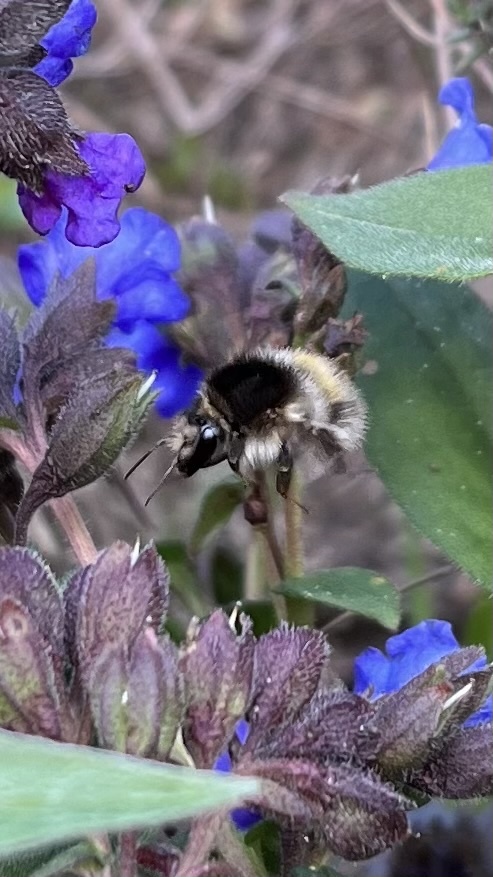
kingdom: Animalia
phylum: Arthropoda
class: Insecta
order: Hymenoptera
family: Apidae
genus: Bombus
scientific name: Bombus pascuorum
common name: Common carder bee
